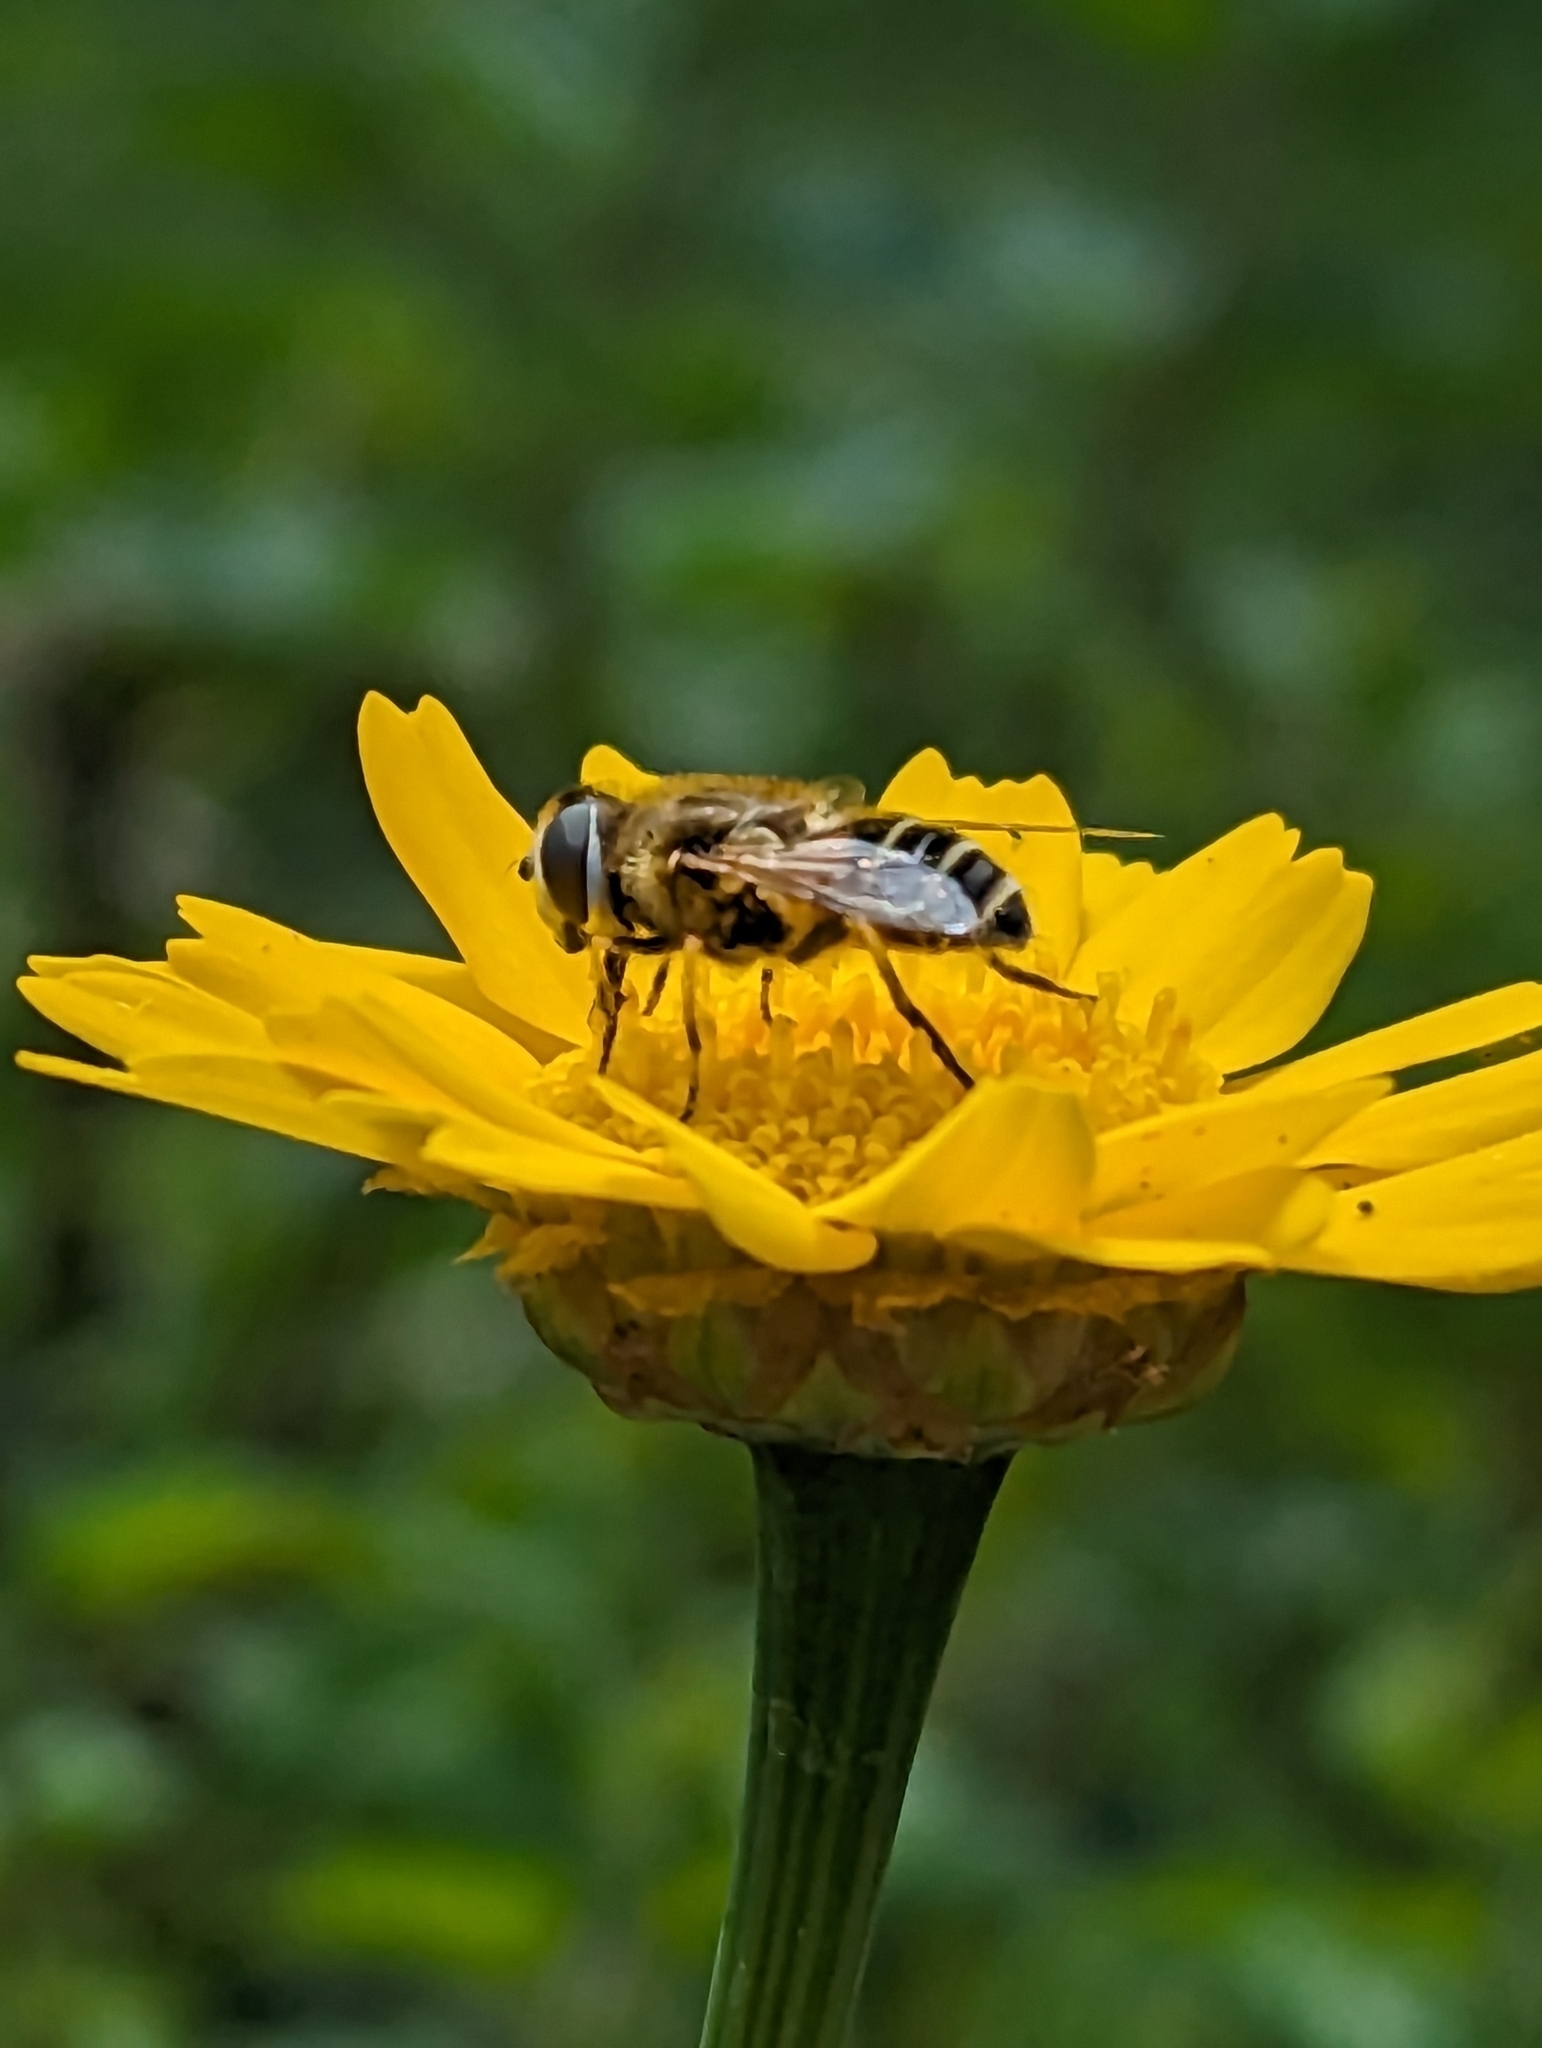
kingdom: Animalia
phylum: Arthropoda
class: Insecta
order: Diptera
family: Syrphidae
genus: Eristalis
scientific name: Eristalis arbustorum
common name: Hover fly
